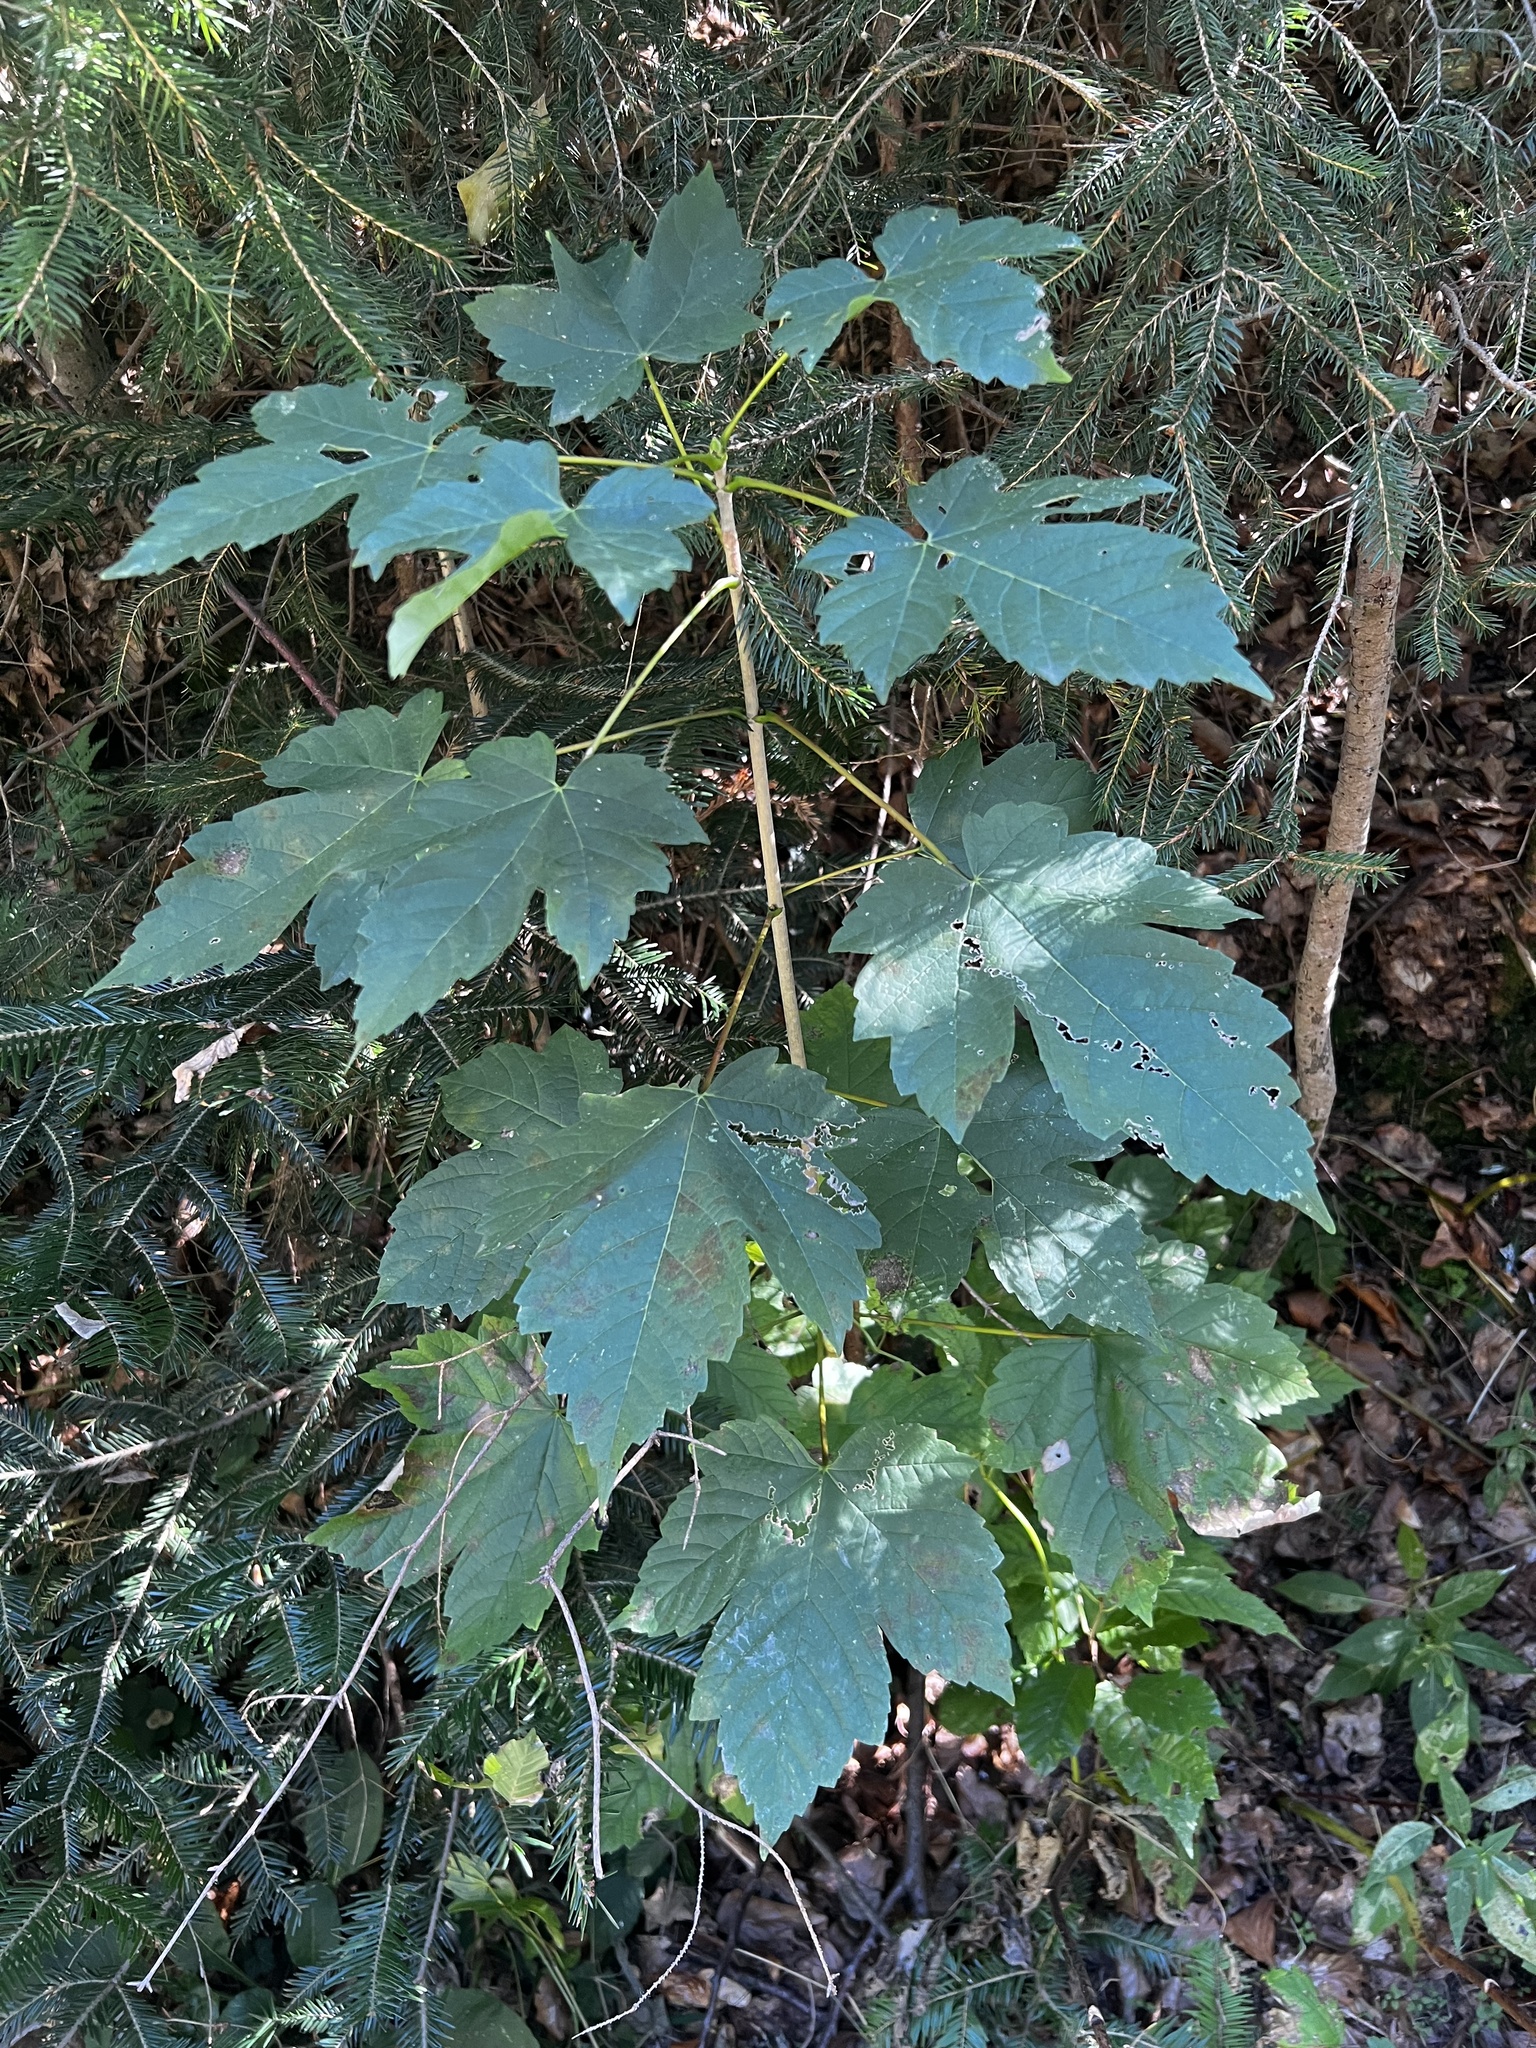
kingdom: Plantae
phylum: Tracheophyta
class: Magnoliopsida
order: Sapindales
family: Sapindaceae
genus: Acer
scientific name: Acer pseudoplatanus
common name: Sycamore
